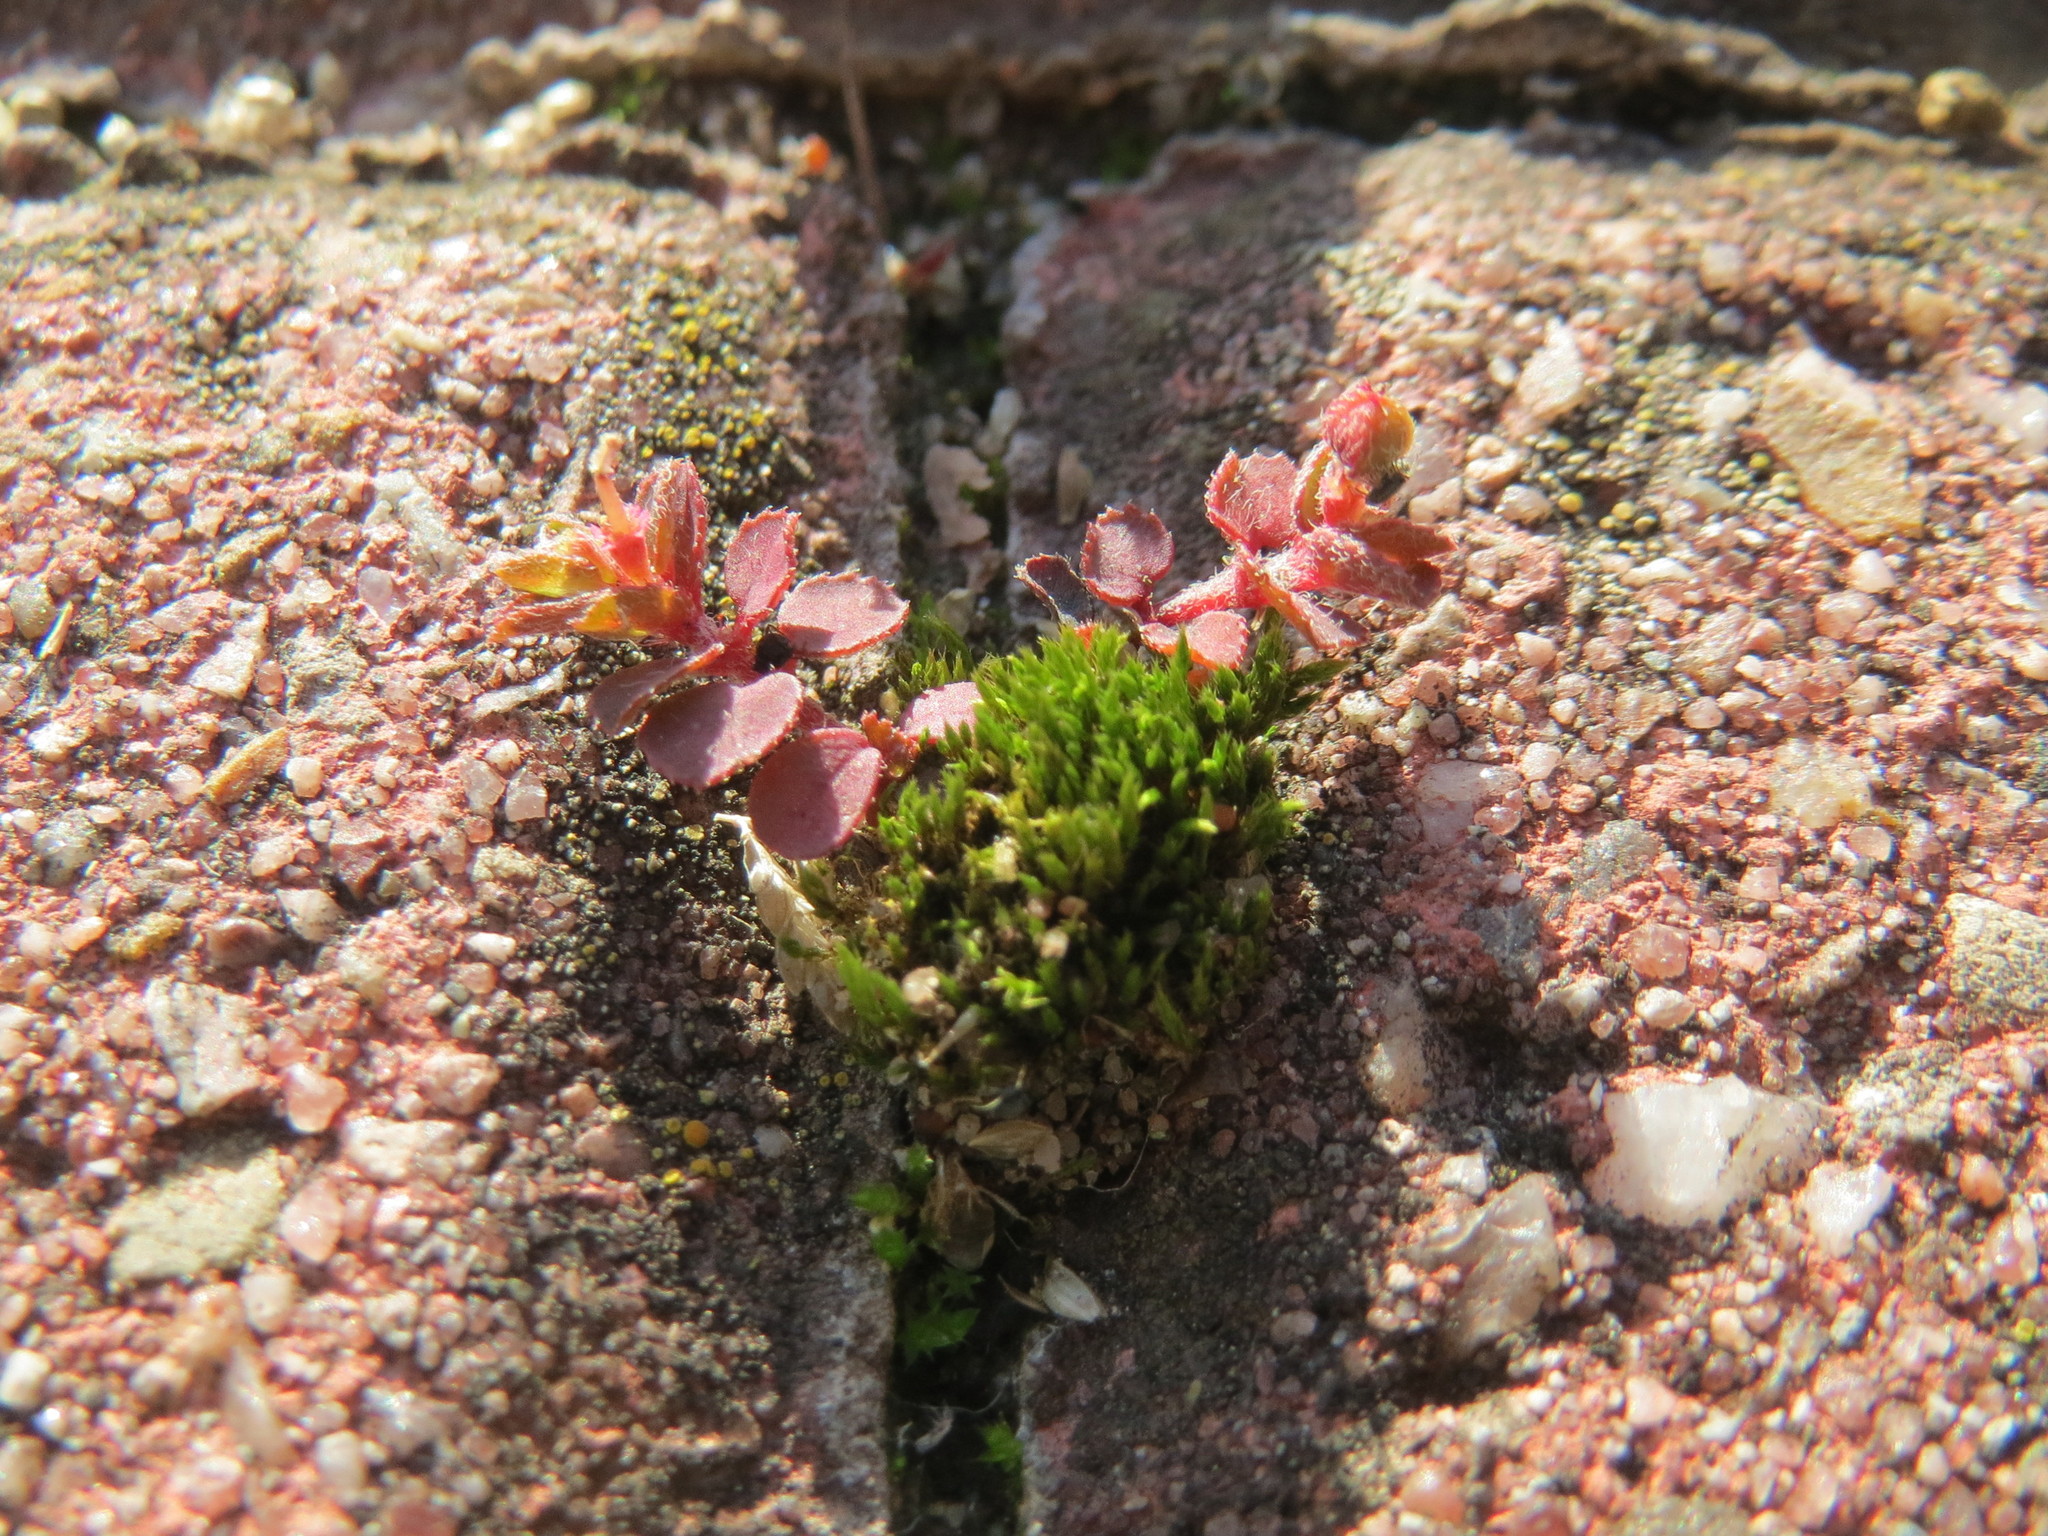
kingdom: Plantae
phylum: Tracheophyta
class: Magnoliopsida
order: Malpighiales
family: Euphorbiaceae
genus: Euphorbia
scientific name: Euphorbia maculata
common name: Spotted spurge
